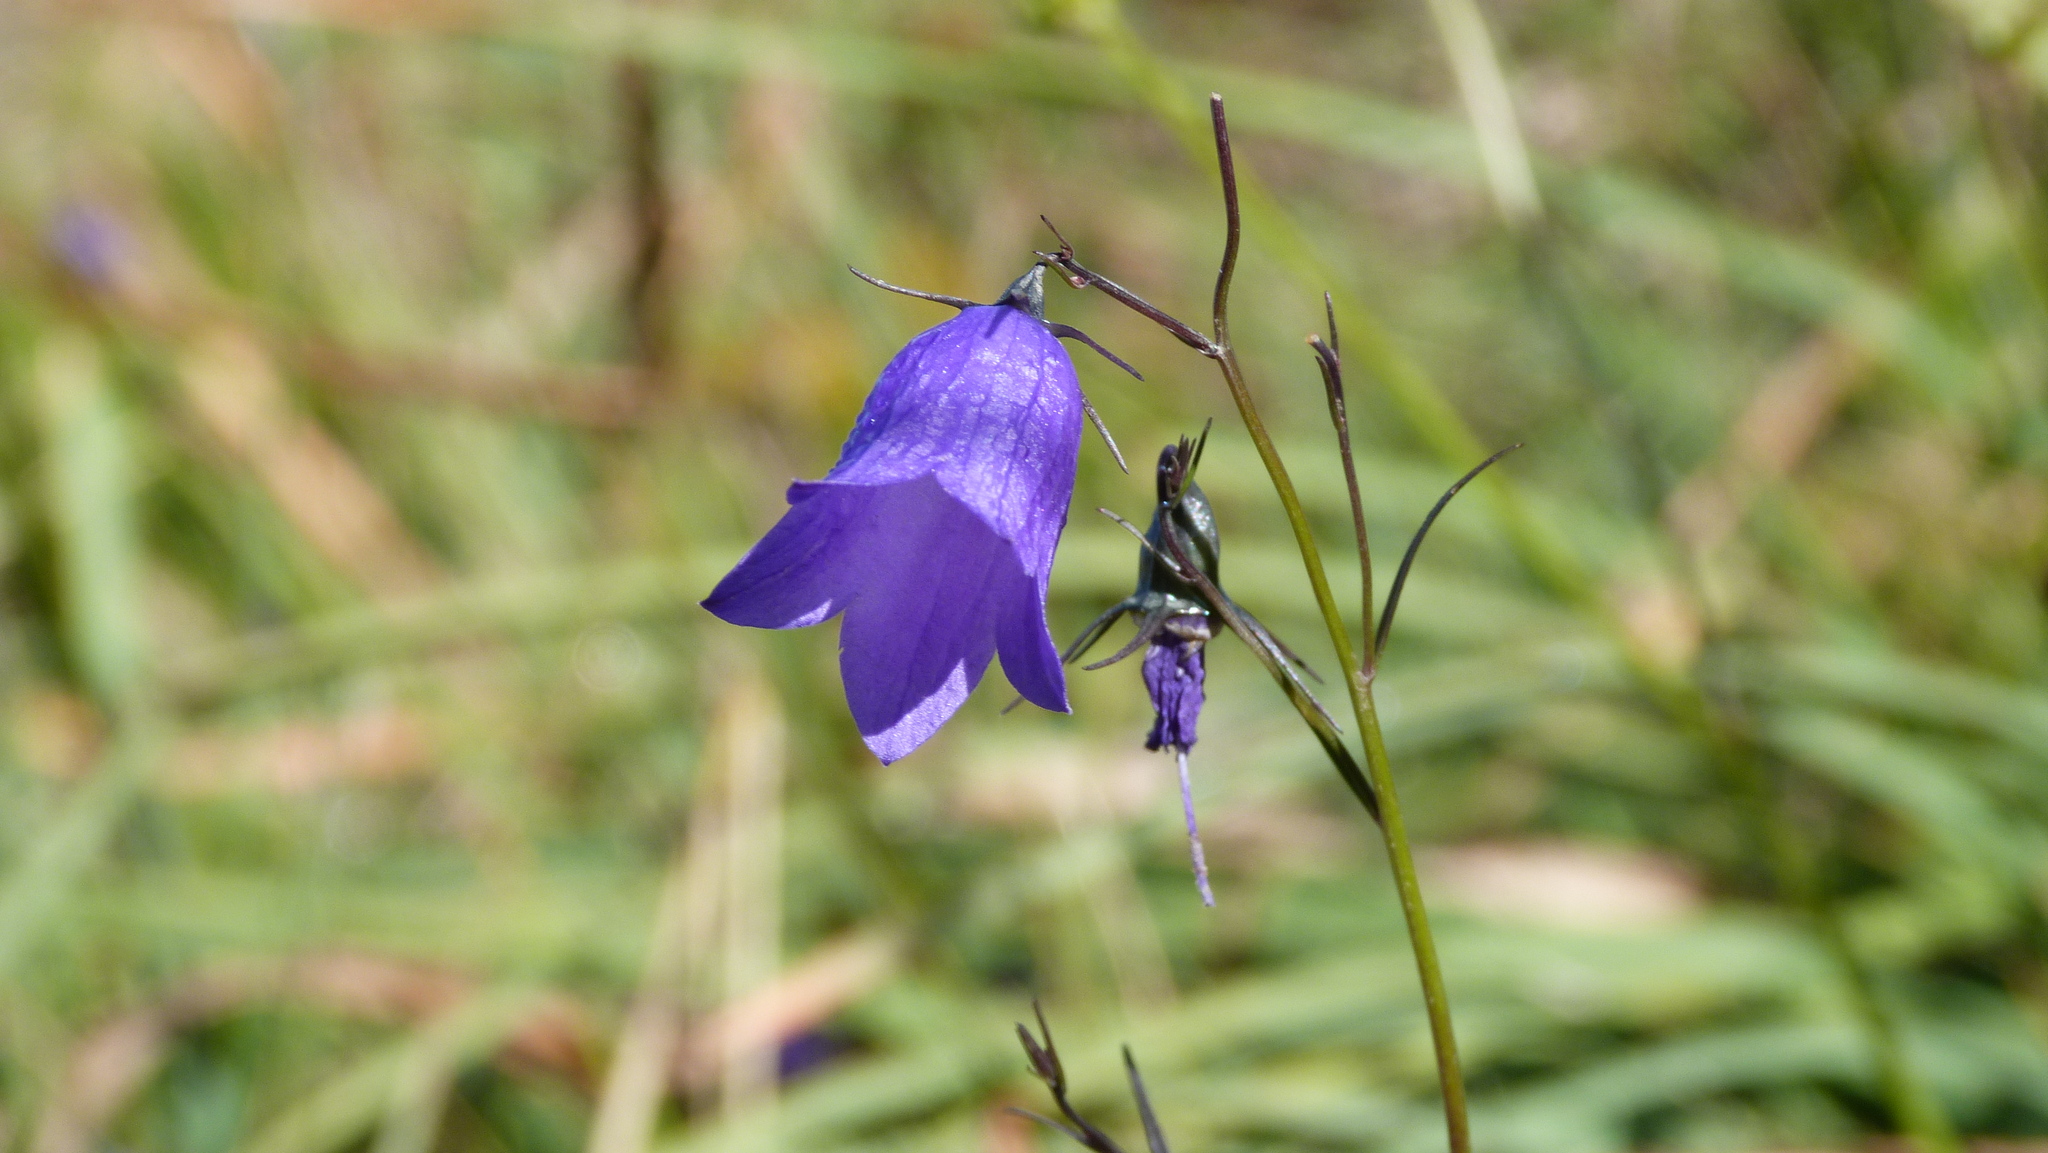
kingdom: Plantae
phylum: Tracheophyta
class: Magnoliopsida
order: Asterales
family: Campanulaceae
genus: Campanula
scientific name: Campanula scheuchzeri
